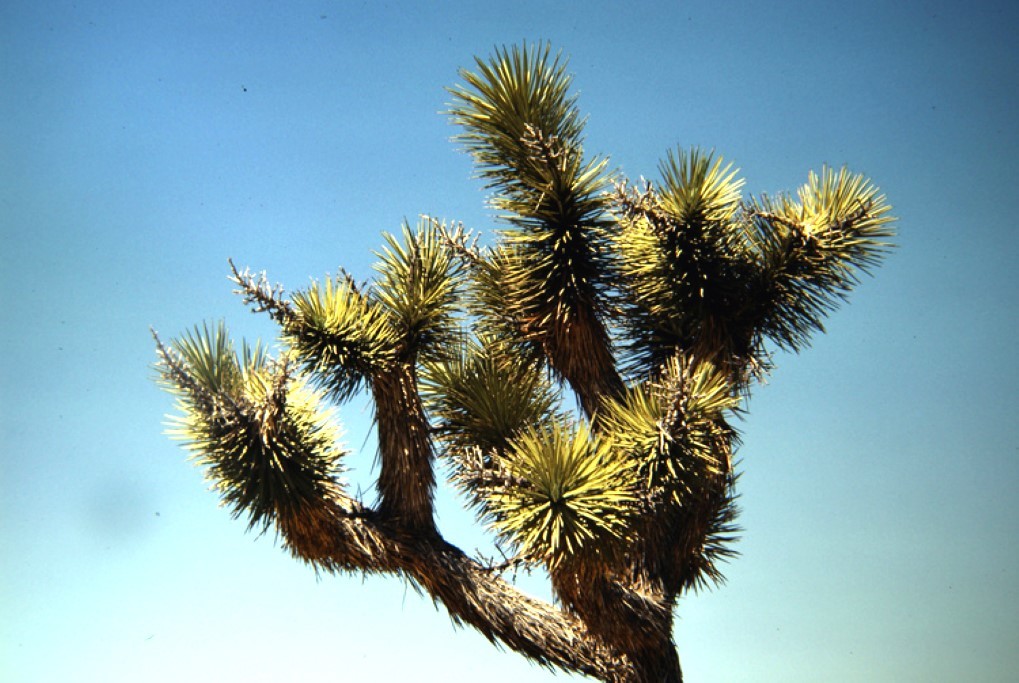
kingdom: Plantae
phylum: Tracheophyta
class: Liliopsida
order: Asparagales
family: Asparagaceae
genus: Yucca
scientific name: Yucca brevifolia
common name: Joshua tree
